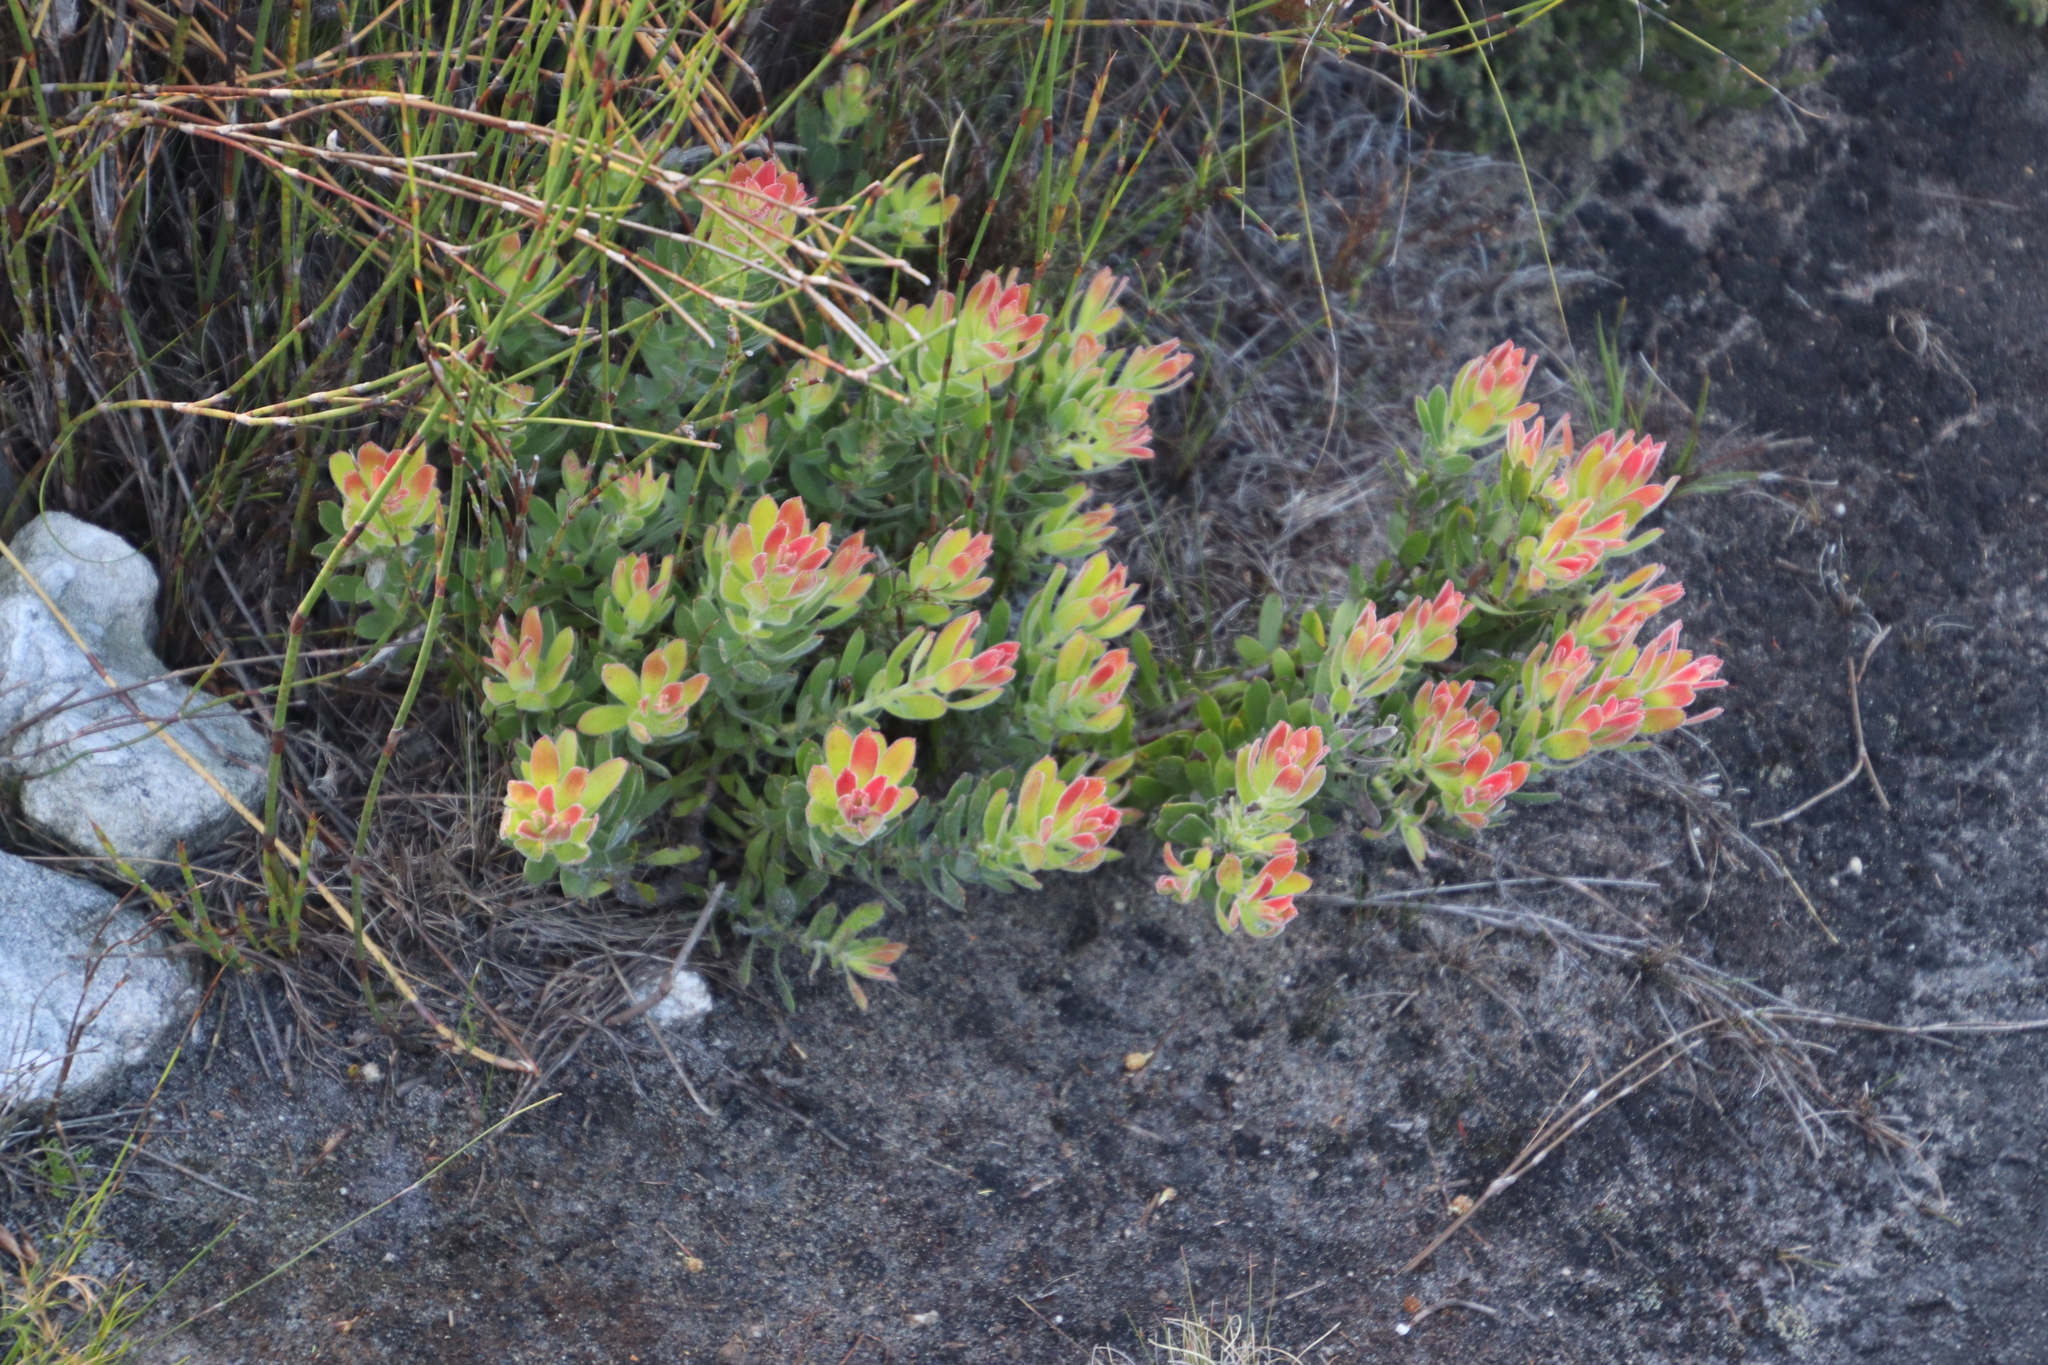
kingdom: Plantae
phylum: Tracheophyta
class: Magnoliopsida
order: Proteales
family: Proteaceae
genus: Mimetes
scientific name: Mimetes cucullatus
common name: Common pagoda
